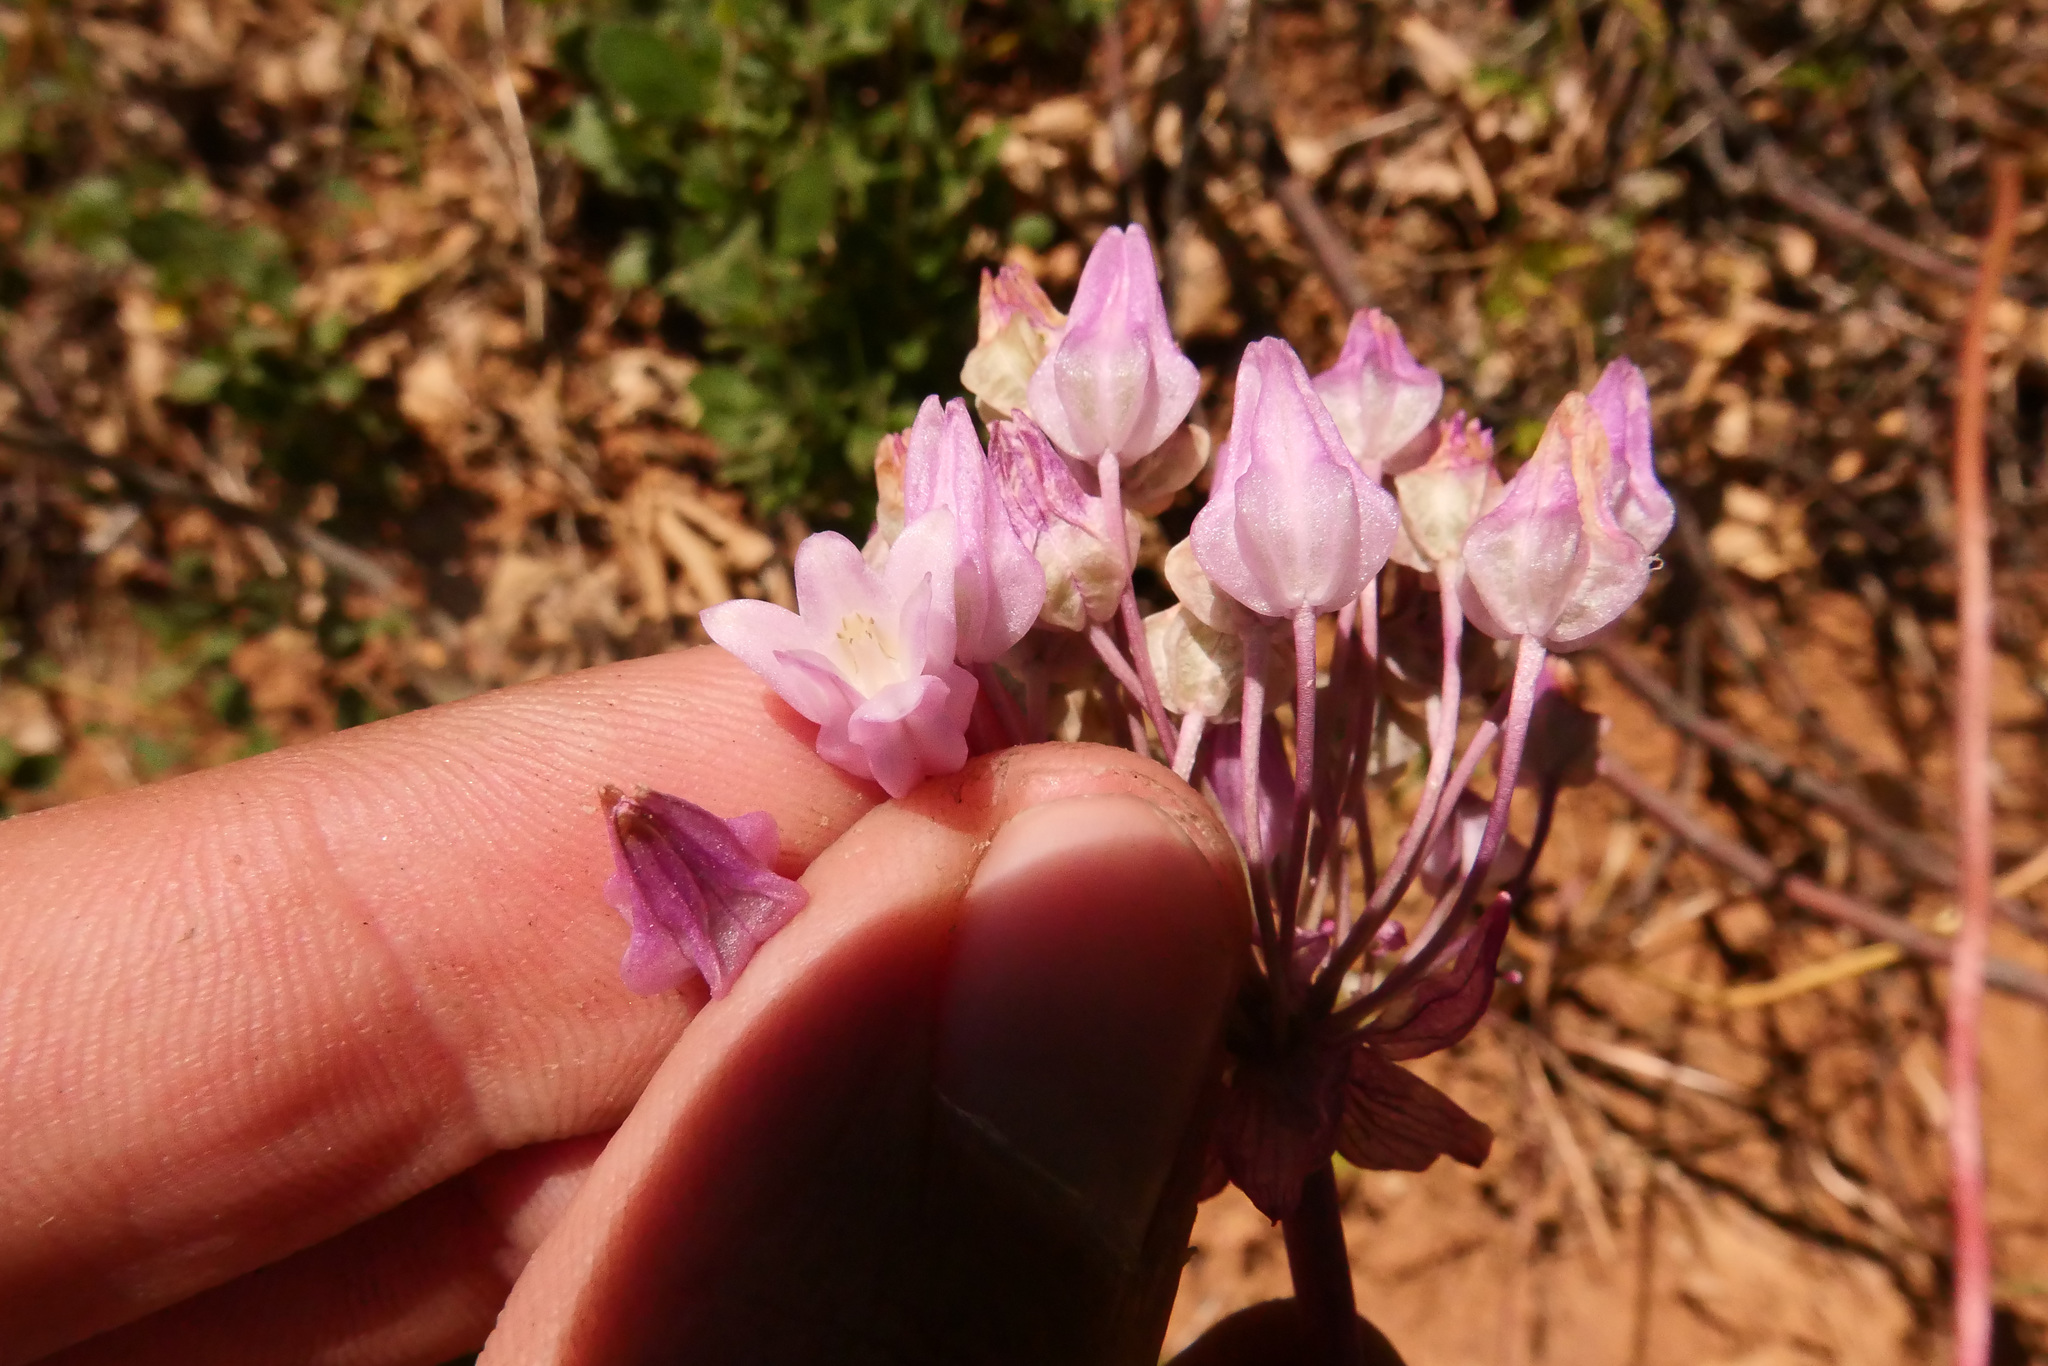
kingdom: Plantae
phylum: Tracheophyta
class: Liliopsida
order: Asparagales
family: Asparagaceae
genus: Dichelostemma
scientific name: Dichelostemma volubile
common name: Trining brodiaea
